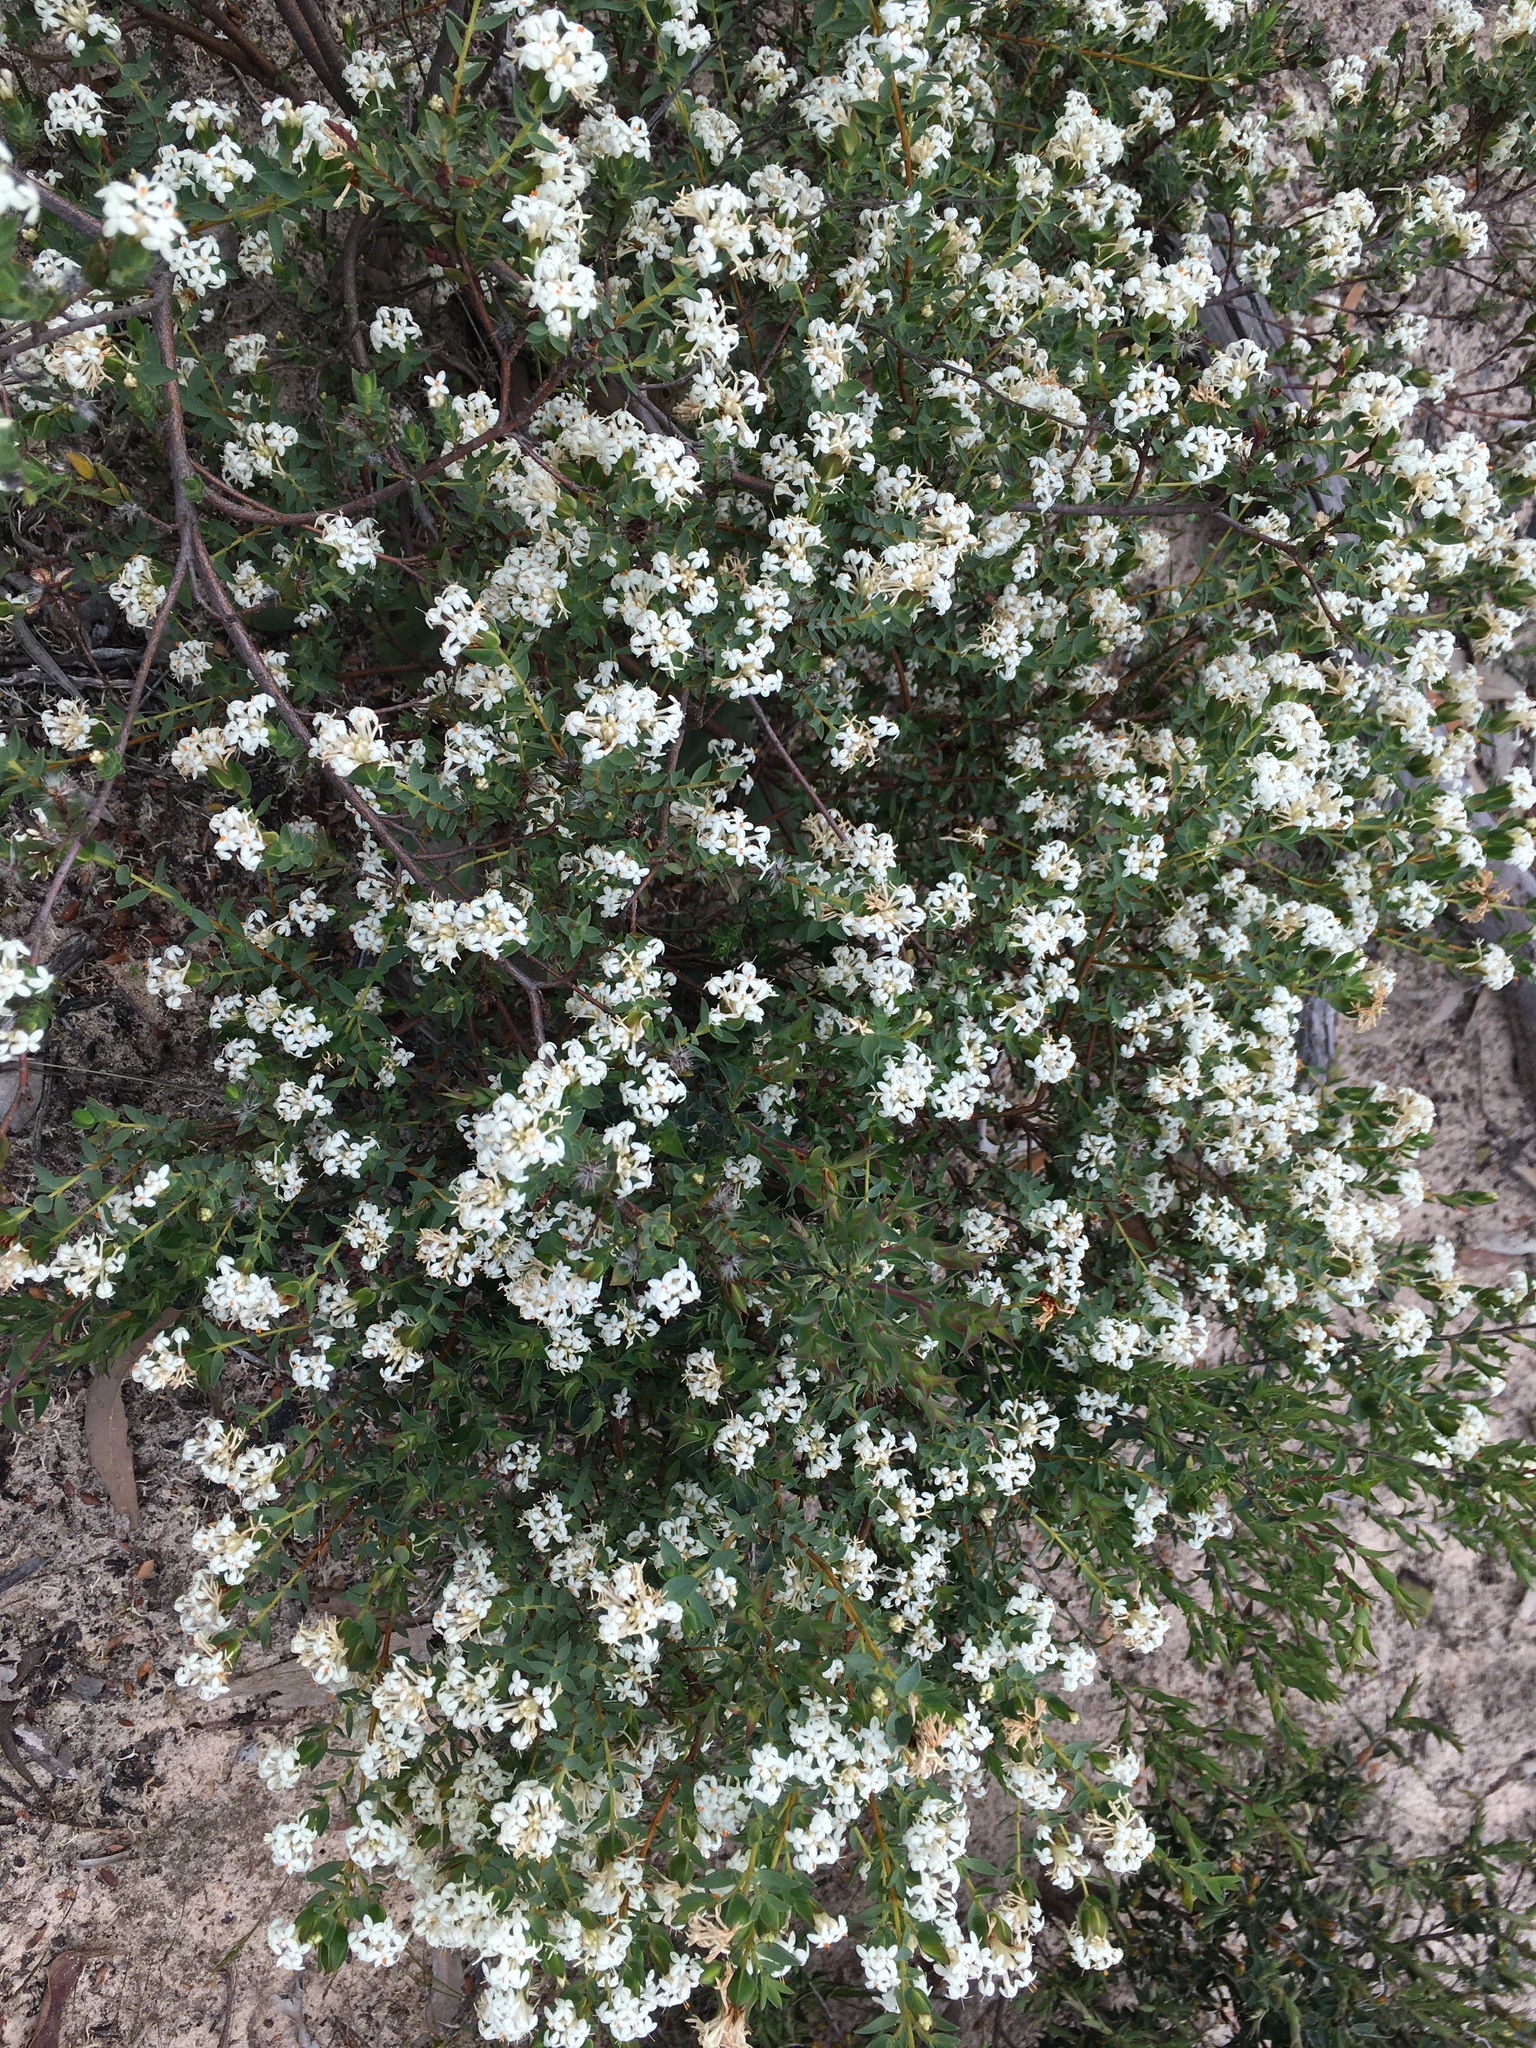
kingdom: Plantae
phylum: Tracheophyta
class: Magnoliopsida
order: Malvales
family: Thymelaeaceae
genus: Pimelea
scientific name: Pimelea glauca
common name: Smooth riceflower
